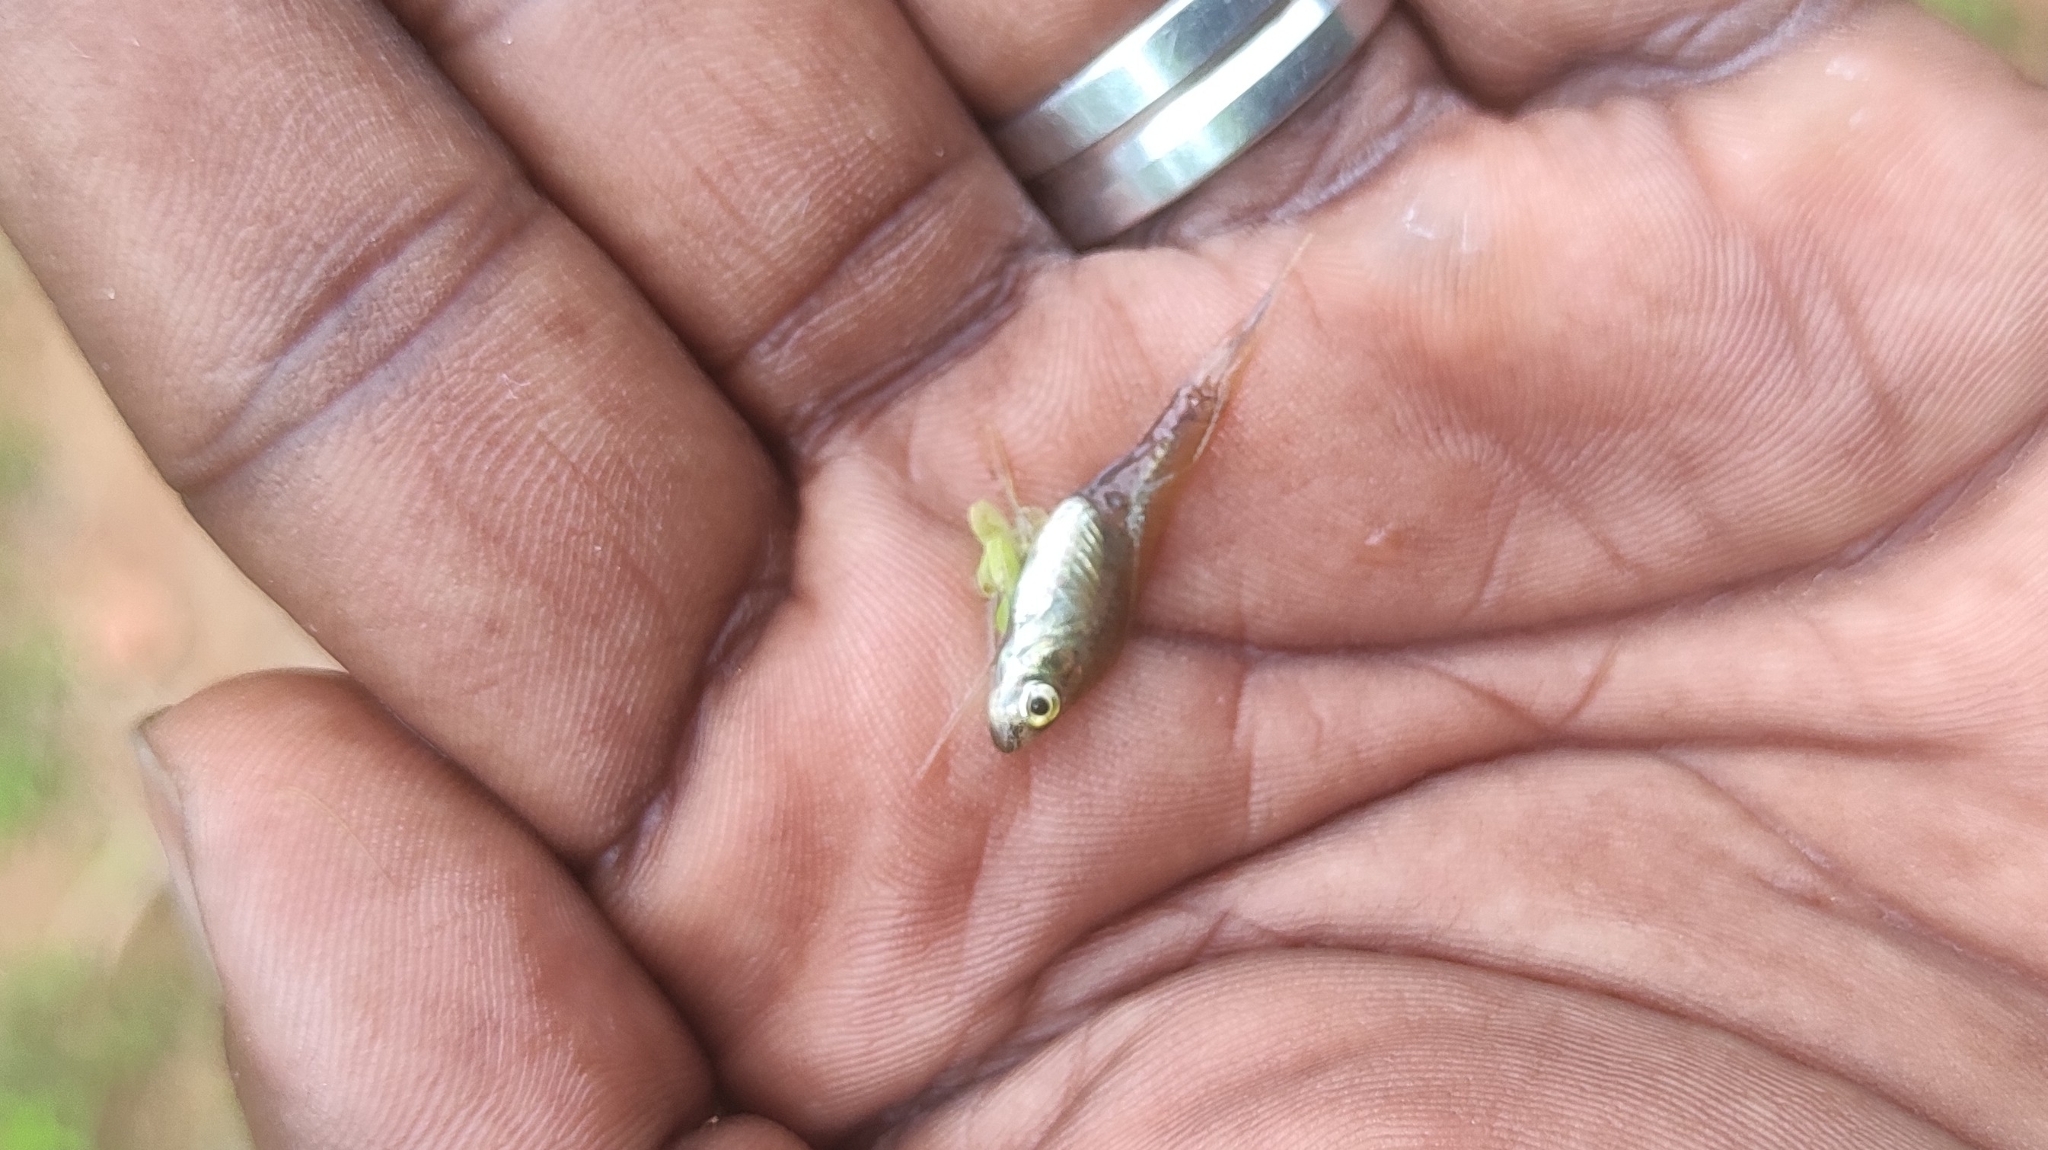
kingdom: Animalia
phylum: Chordata
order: Cypriniformes
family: Cyprinidae
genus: Horadandia
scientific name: Horadandia brittani
